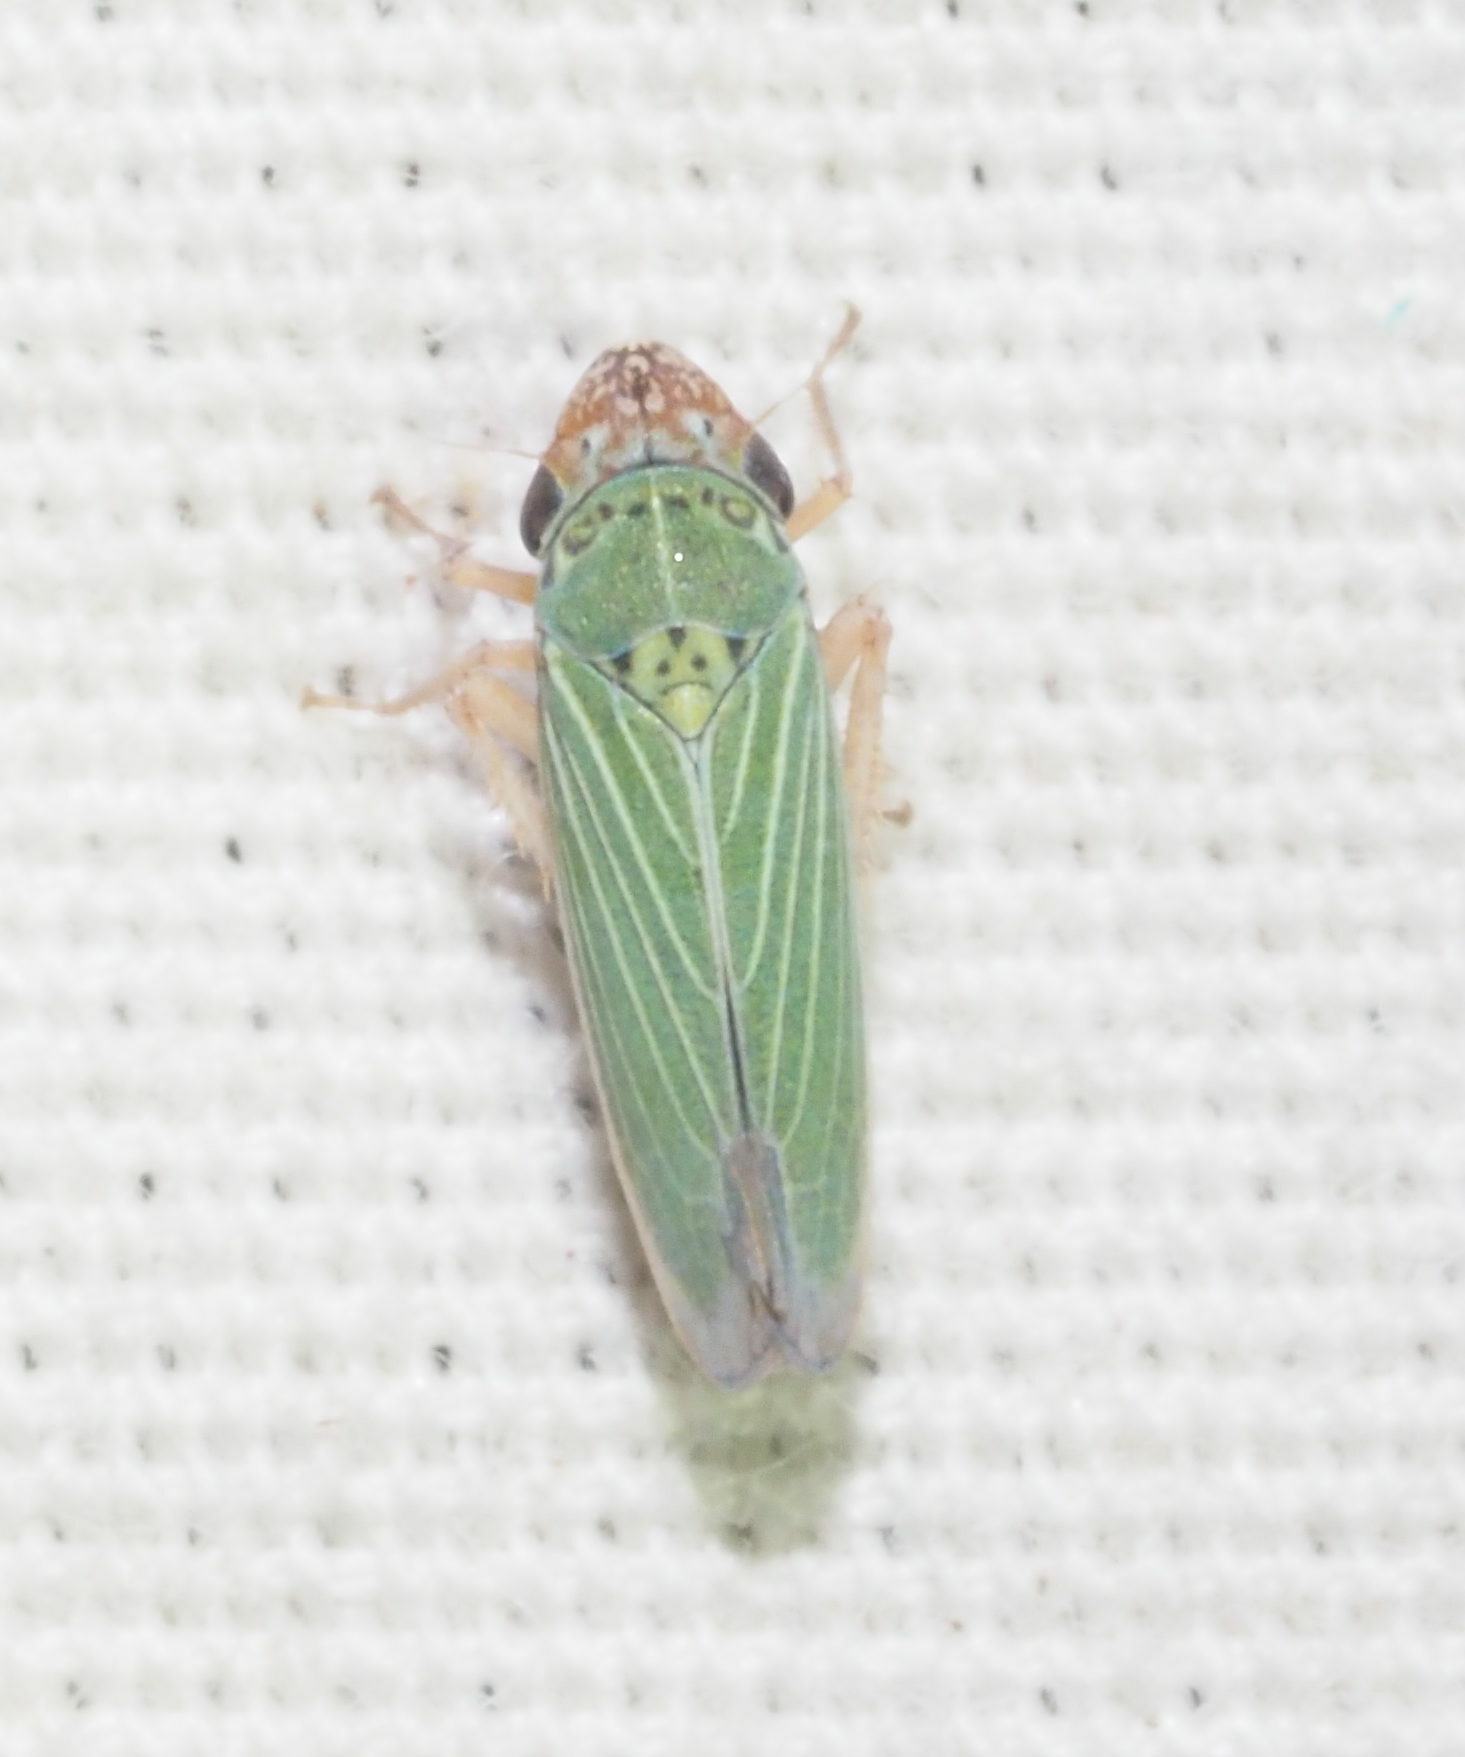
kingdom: Animalia
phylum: Arthropoda
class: Insecta
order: Hemiptera
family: Cicadellidae
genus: Xyphon
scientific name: Xyphon reticulatum
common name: Planthopper
